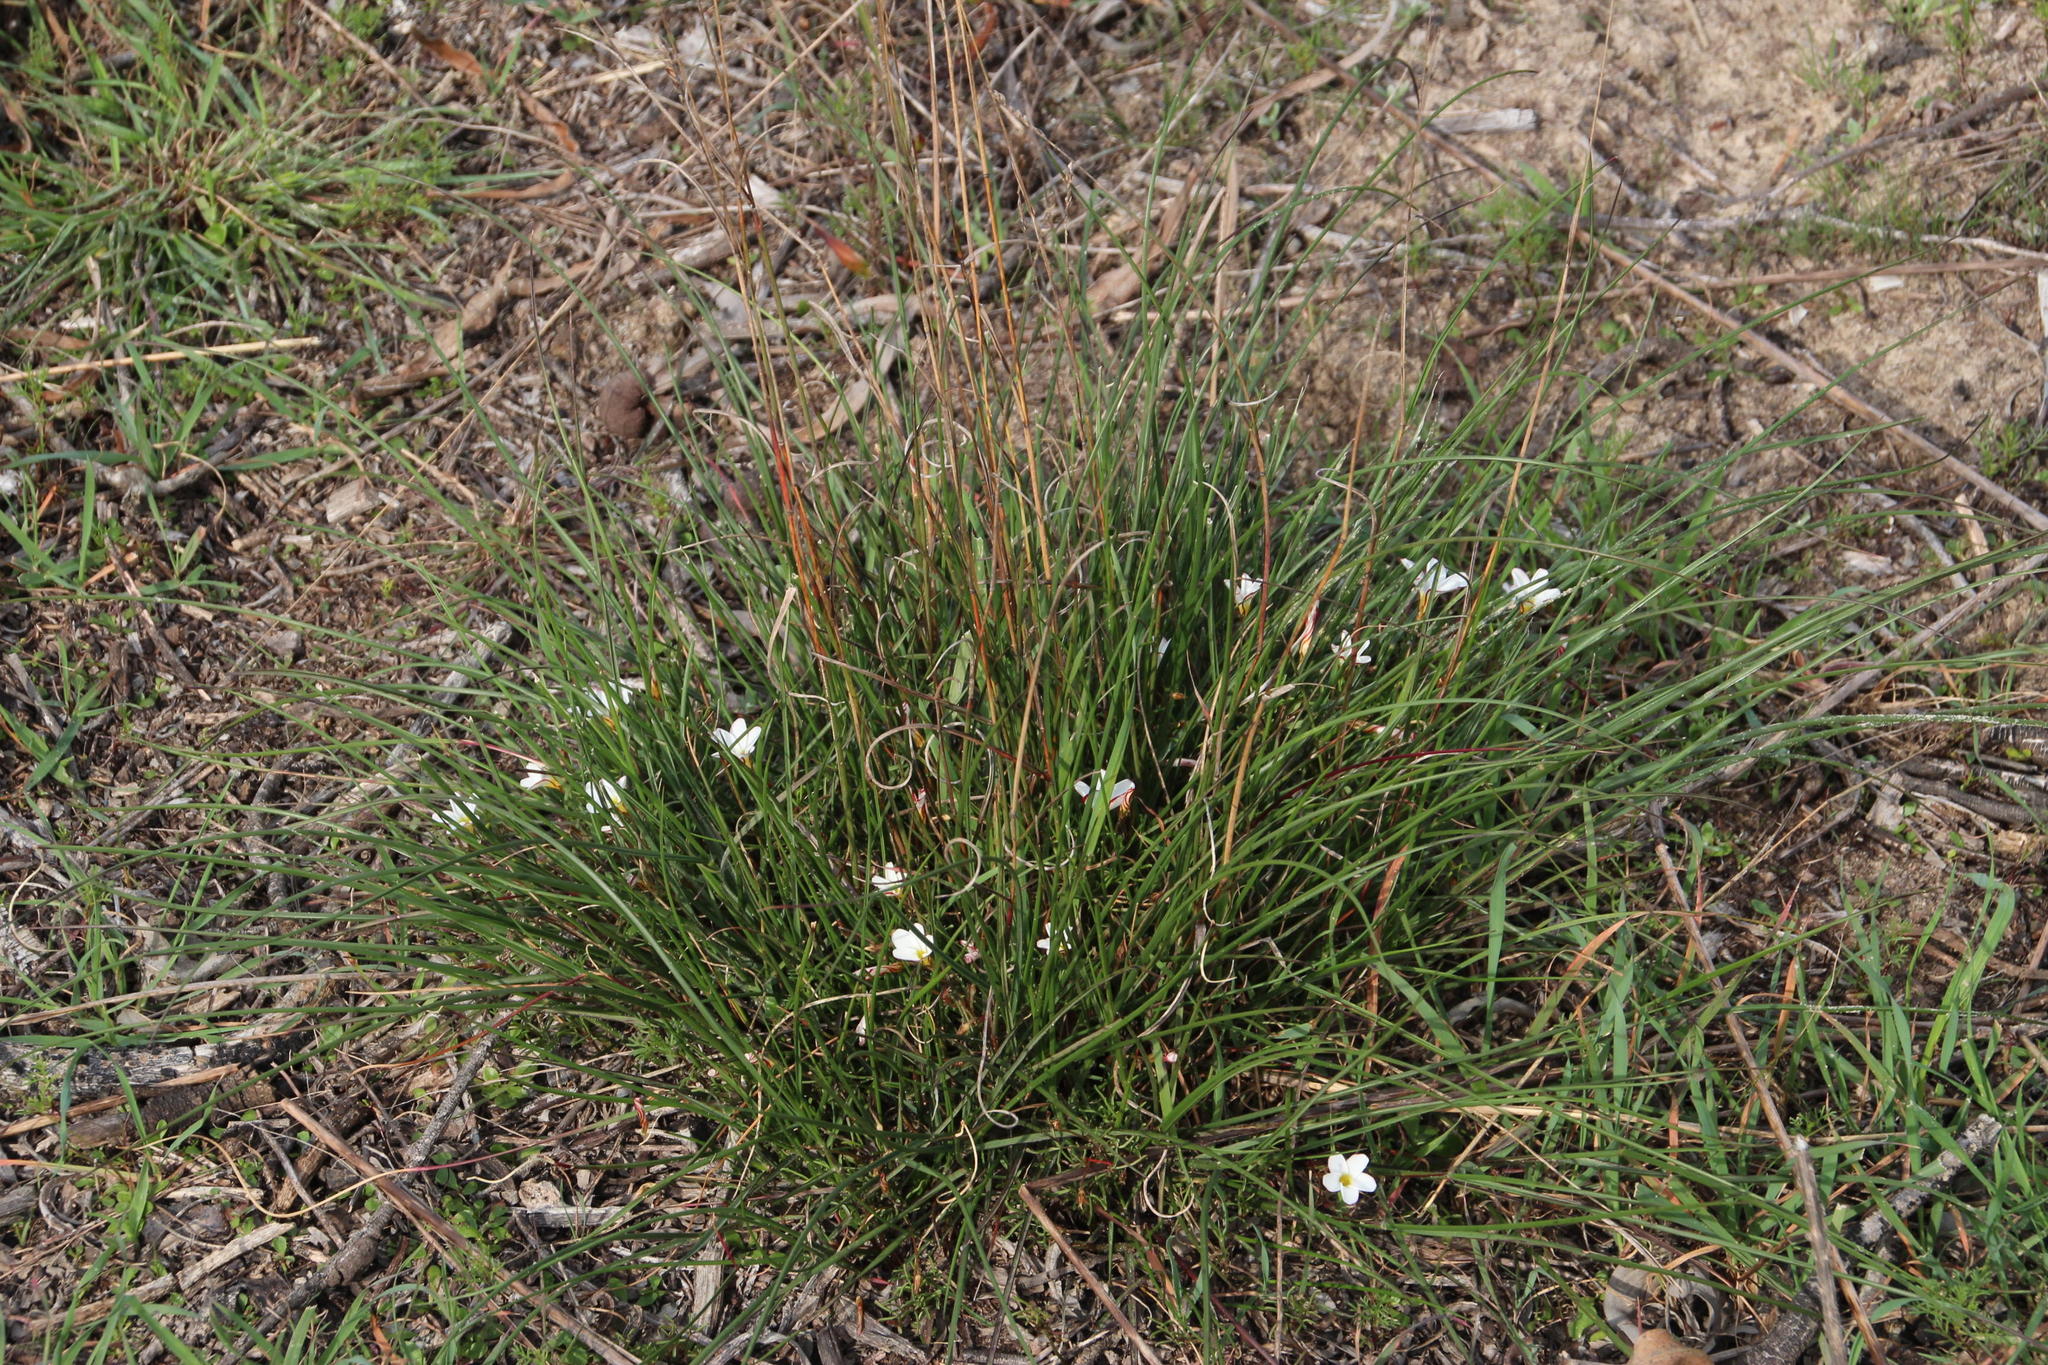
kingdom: Plantae
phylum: Tracheophyta
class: Magnoliopsida
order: Oxalidales
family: Oxalidaceae
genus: Oxalis
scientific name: Oxalis versicolor
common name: Peppermint rock oxalis
